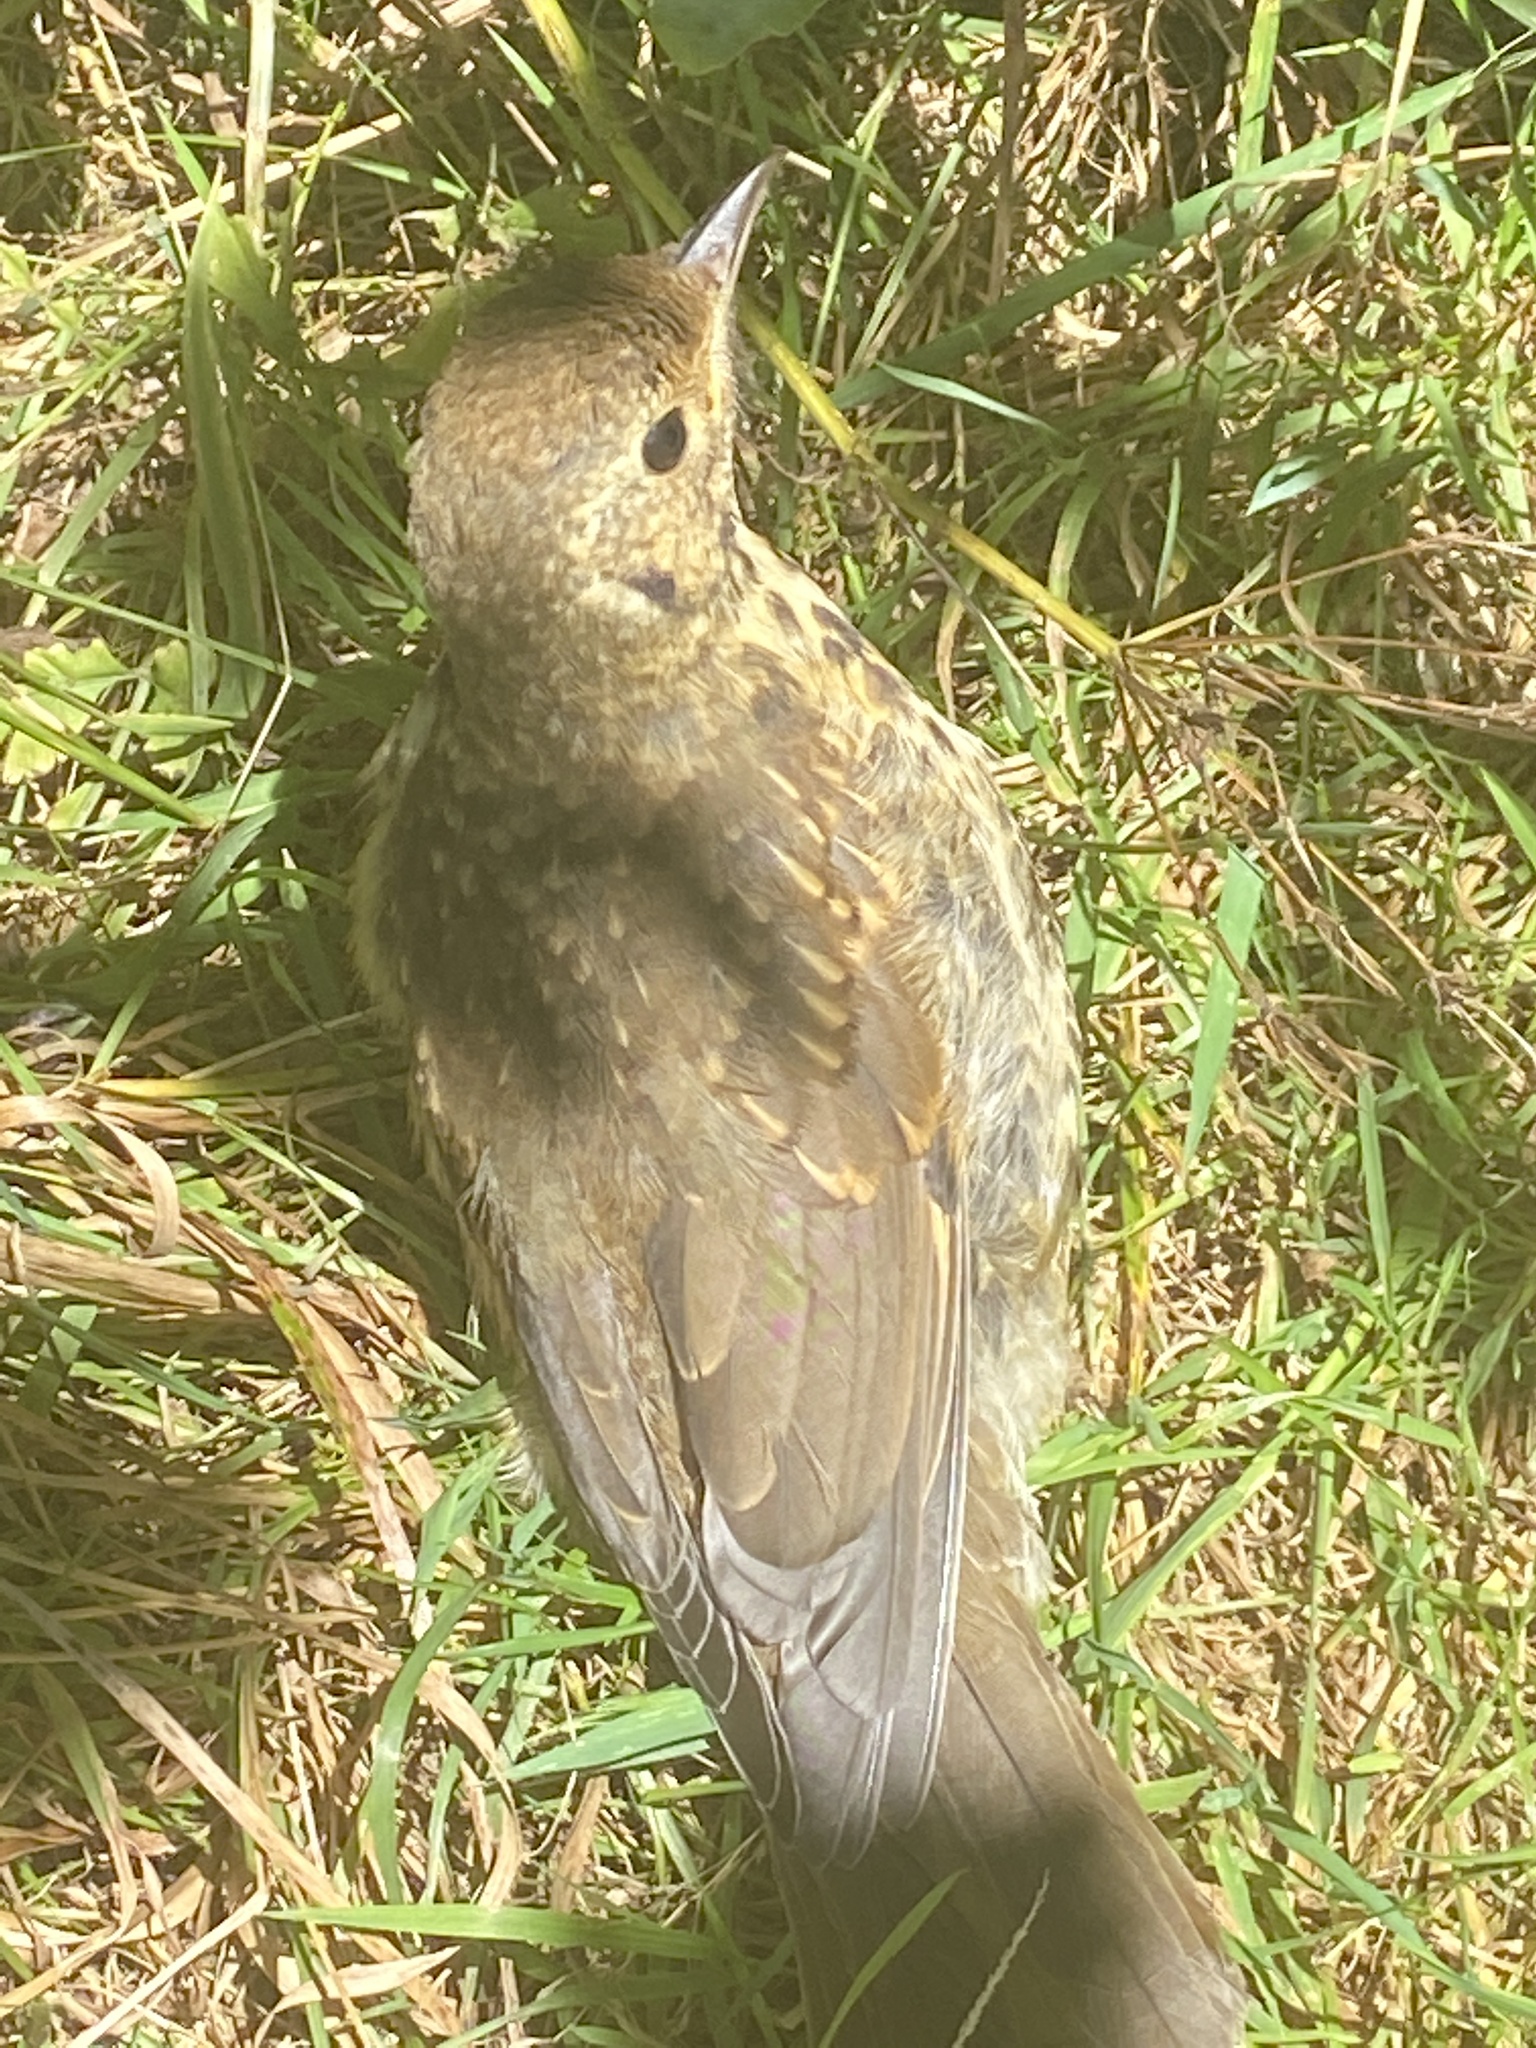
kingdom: Animalia
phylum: Chordata
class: Aves
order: Passeriformes
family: Turdidae
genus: Turdus
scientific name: Turdus philomelos
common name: Song thrush
